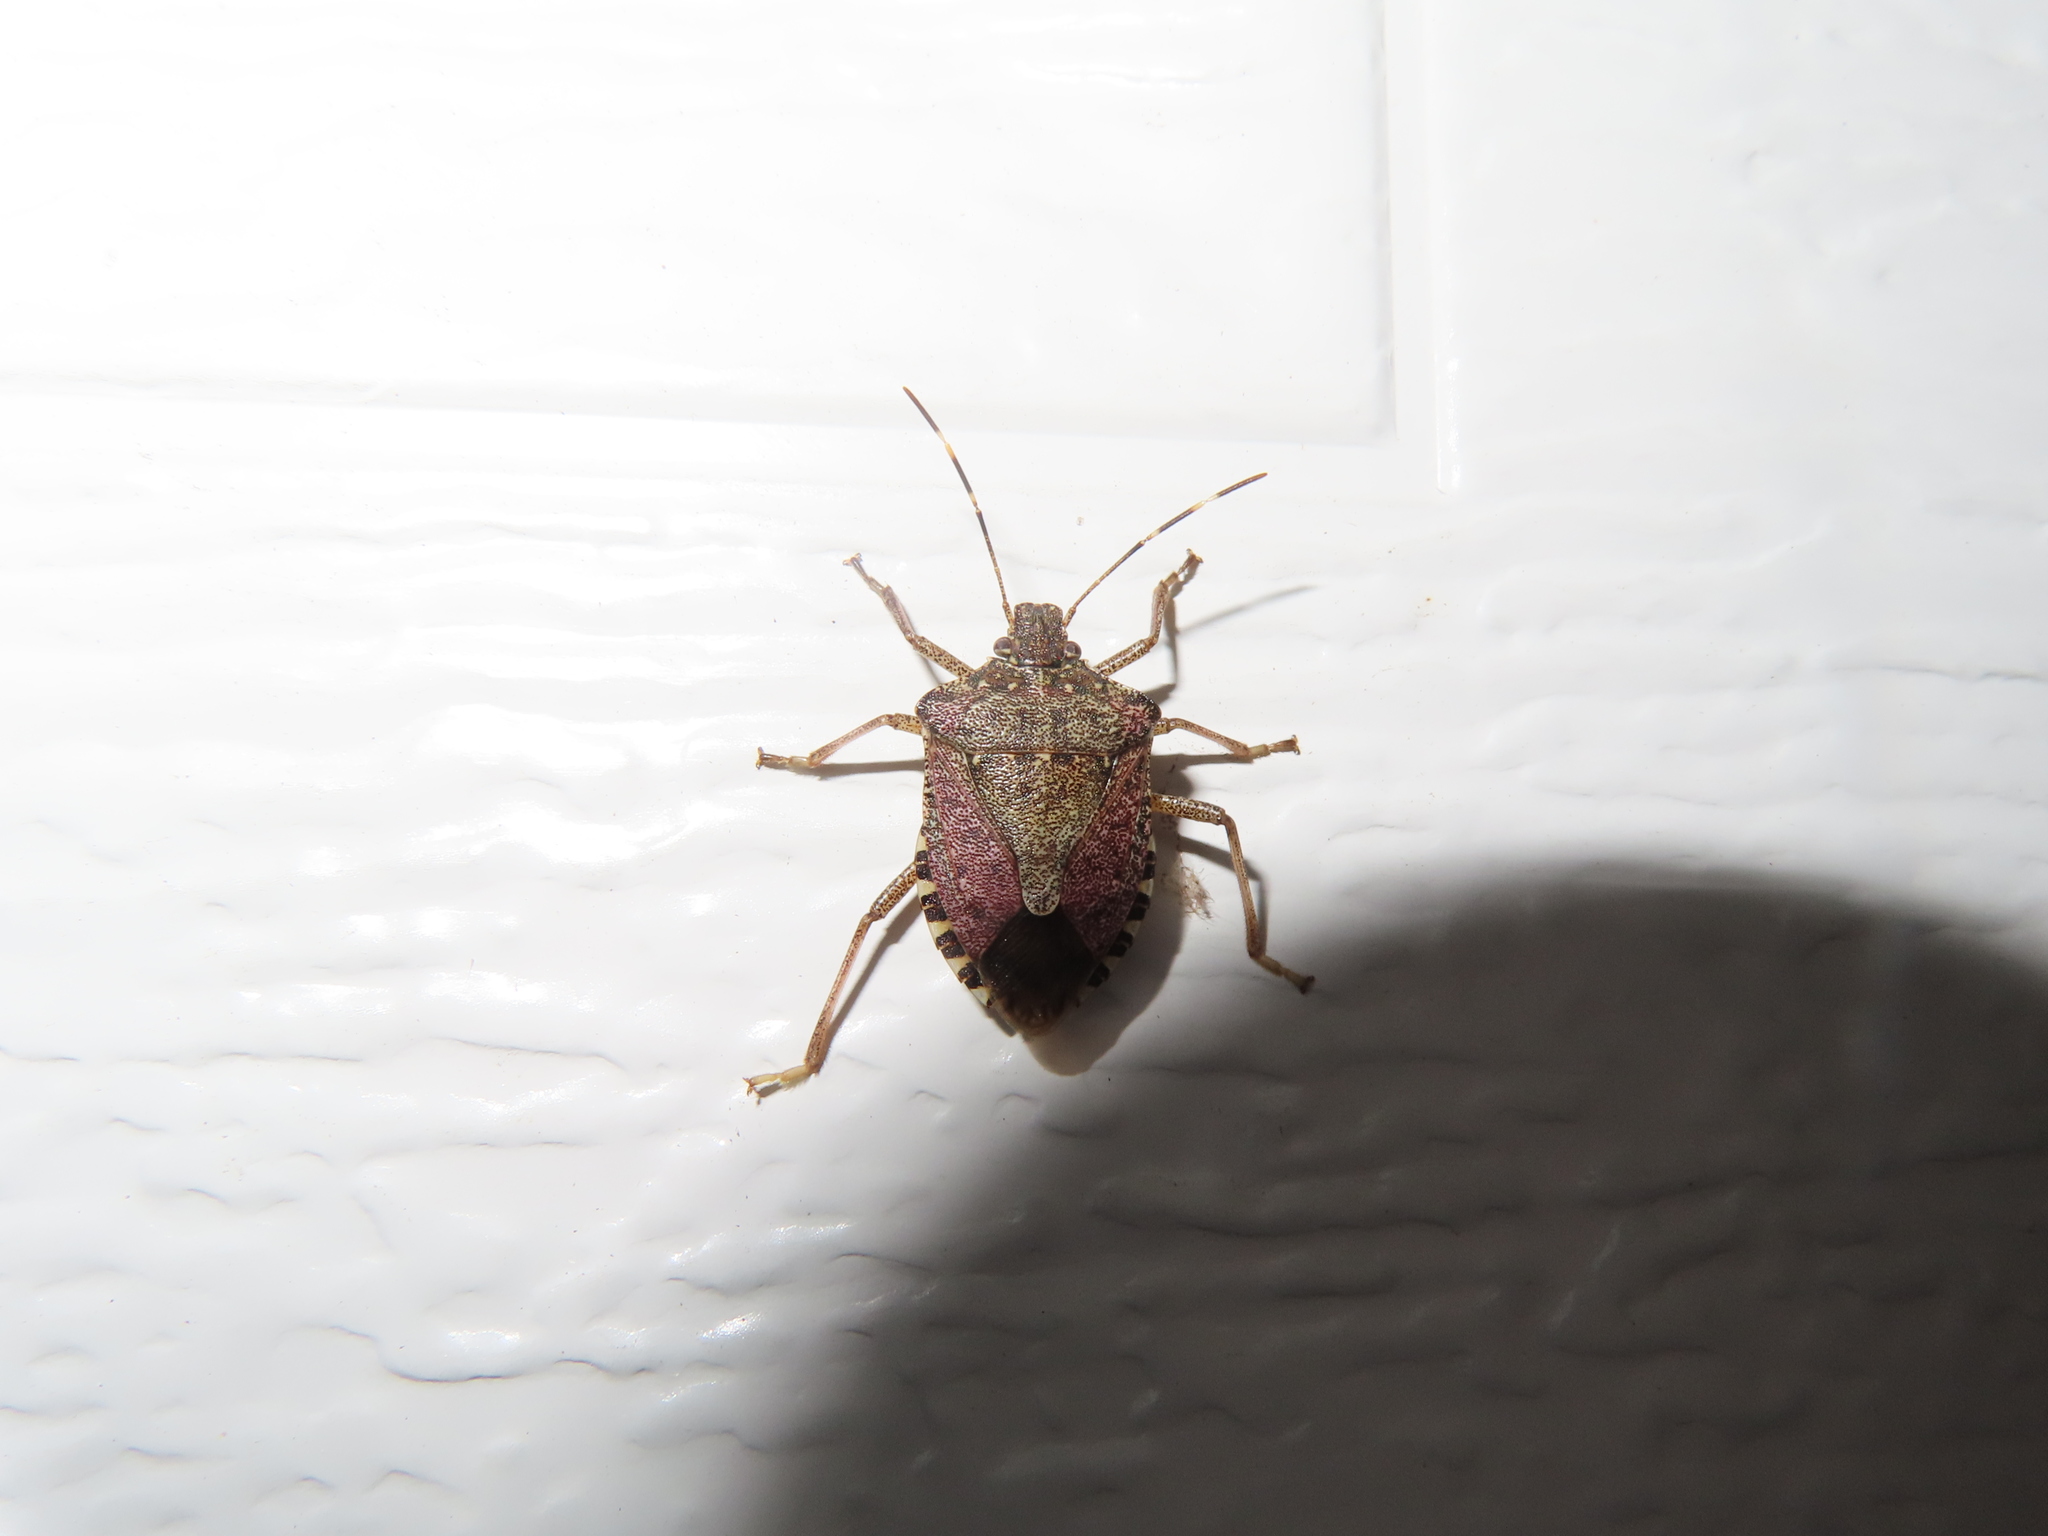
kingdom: Animalia
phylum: Arthropoda
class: Insecta
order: Hemiptera
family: Pentatomidae
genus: Halyomorpha
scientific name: Halyomorpha halys
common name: Brown marmorated stink bug
